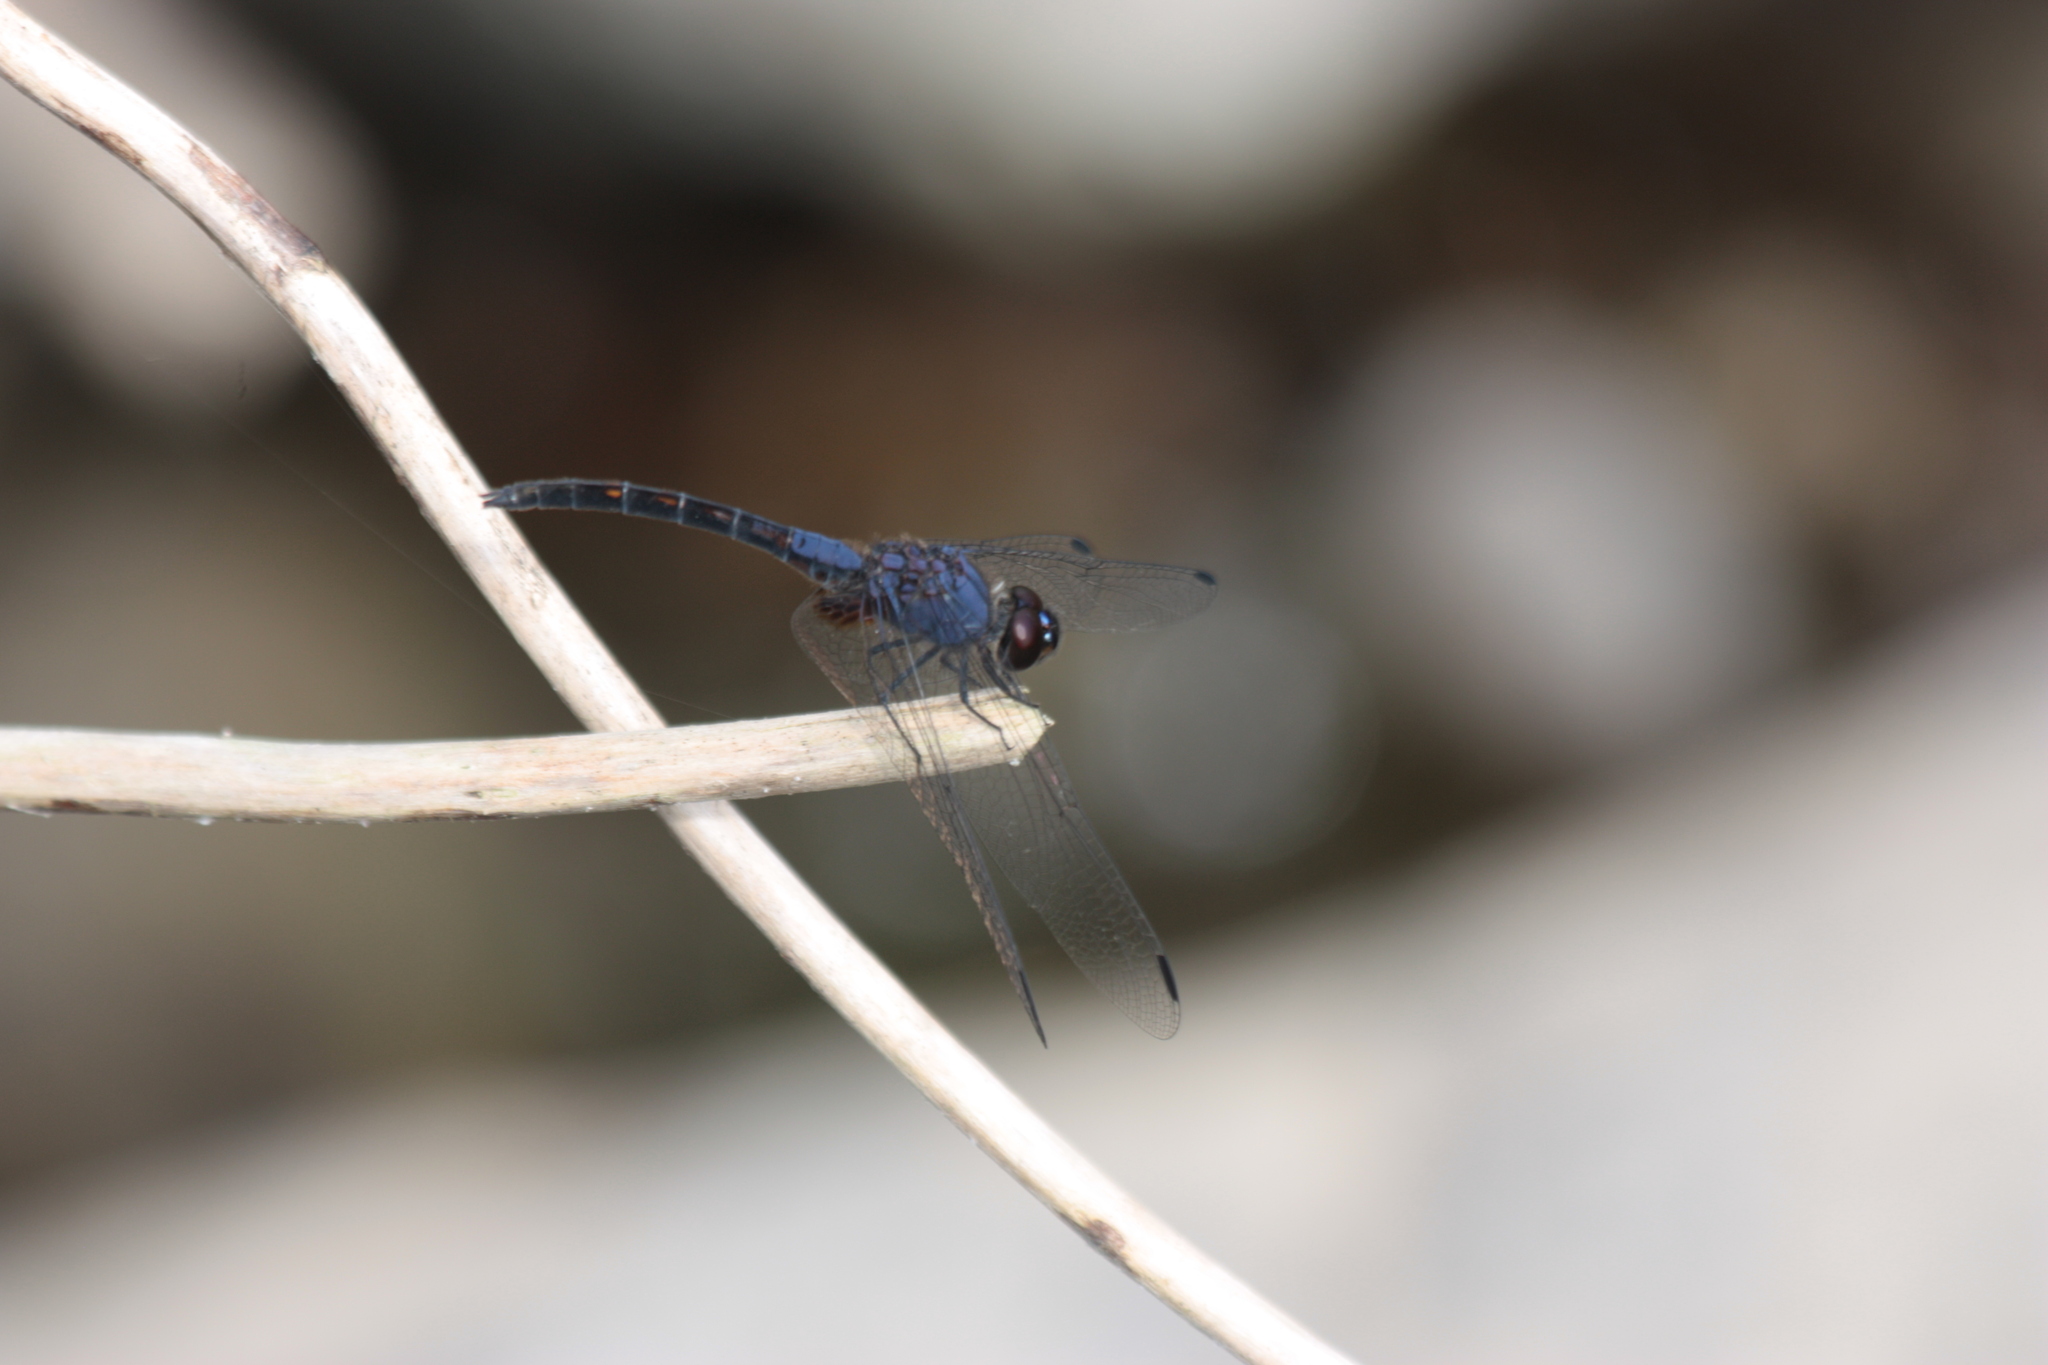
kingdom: Animalia
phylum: Arthropoda
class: Insecta
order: Odonata
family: Libellulidae
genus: Trithemis
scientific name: Trithemis festiva
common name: Indigo dropwing
